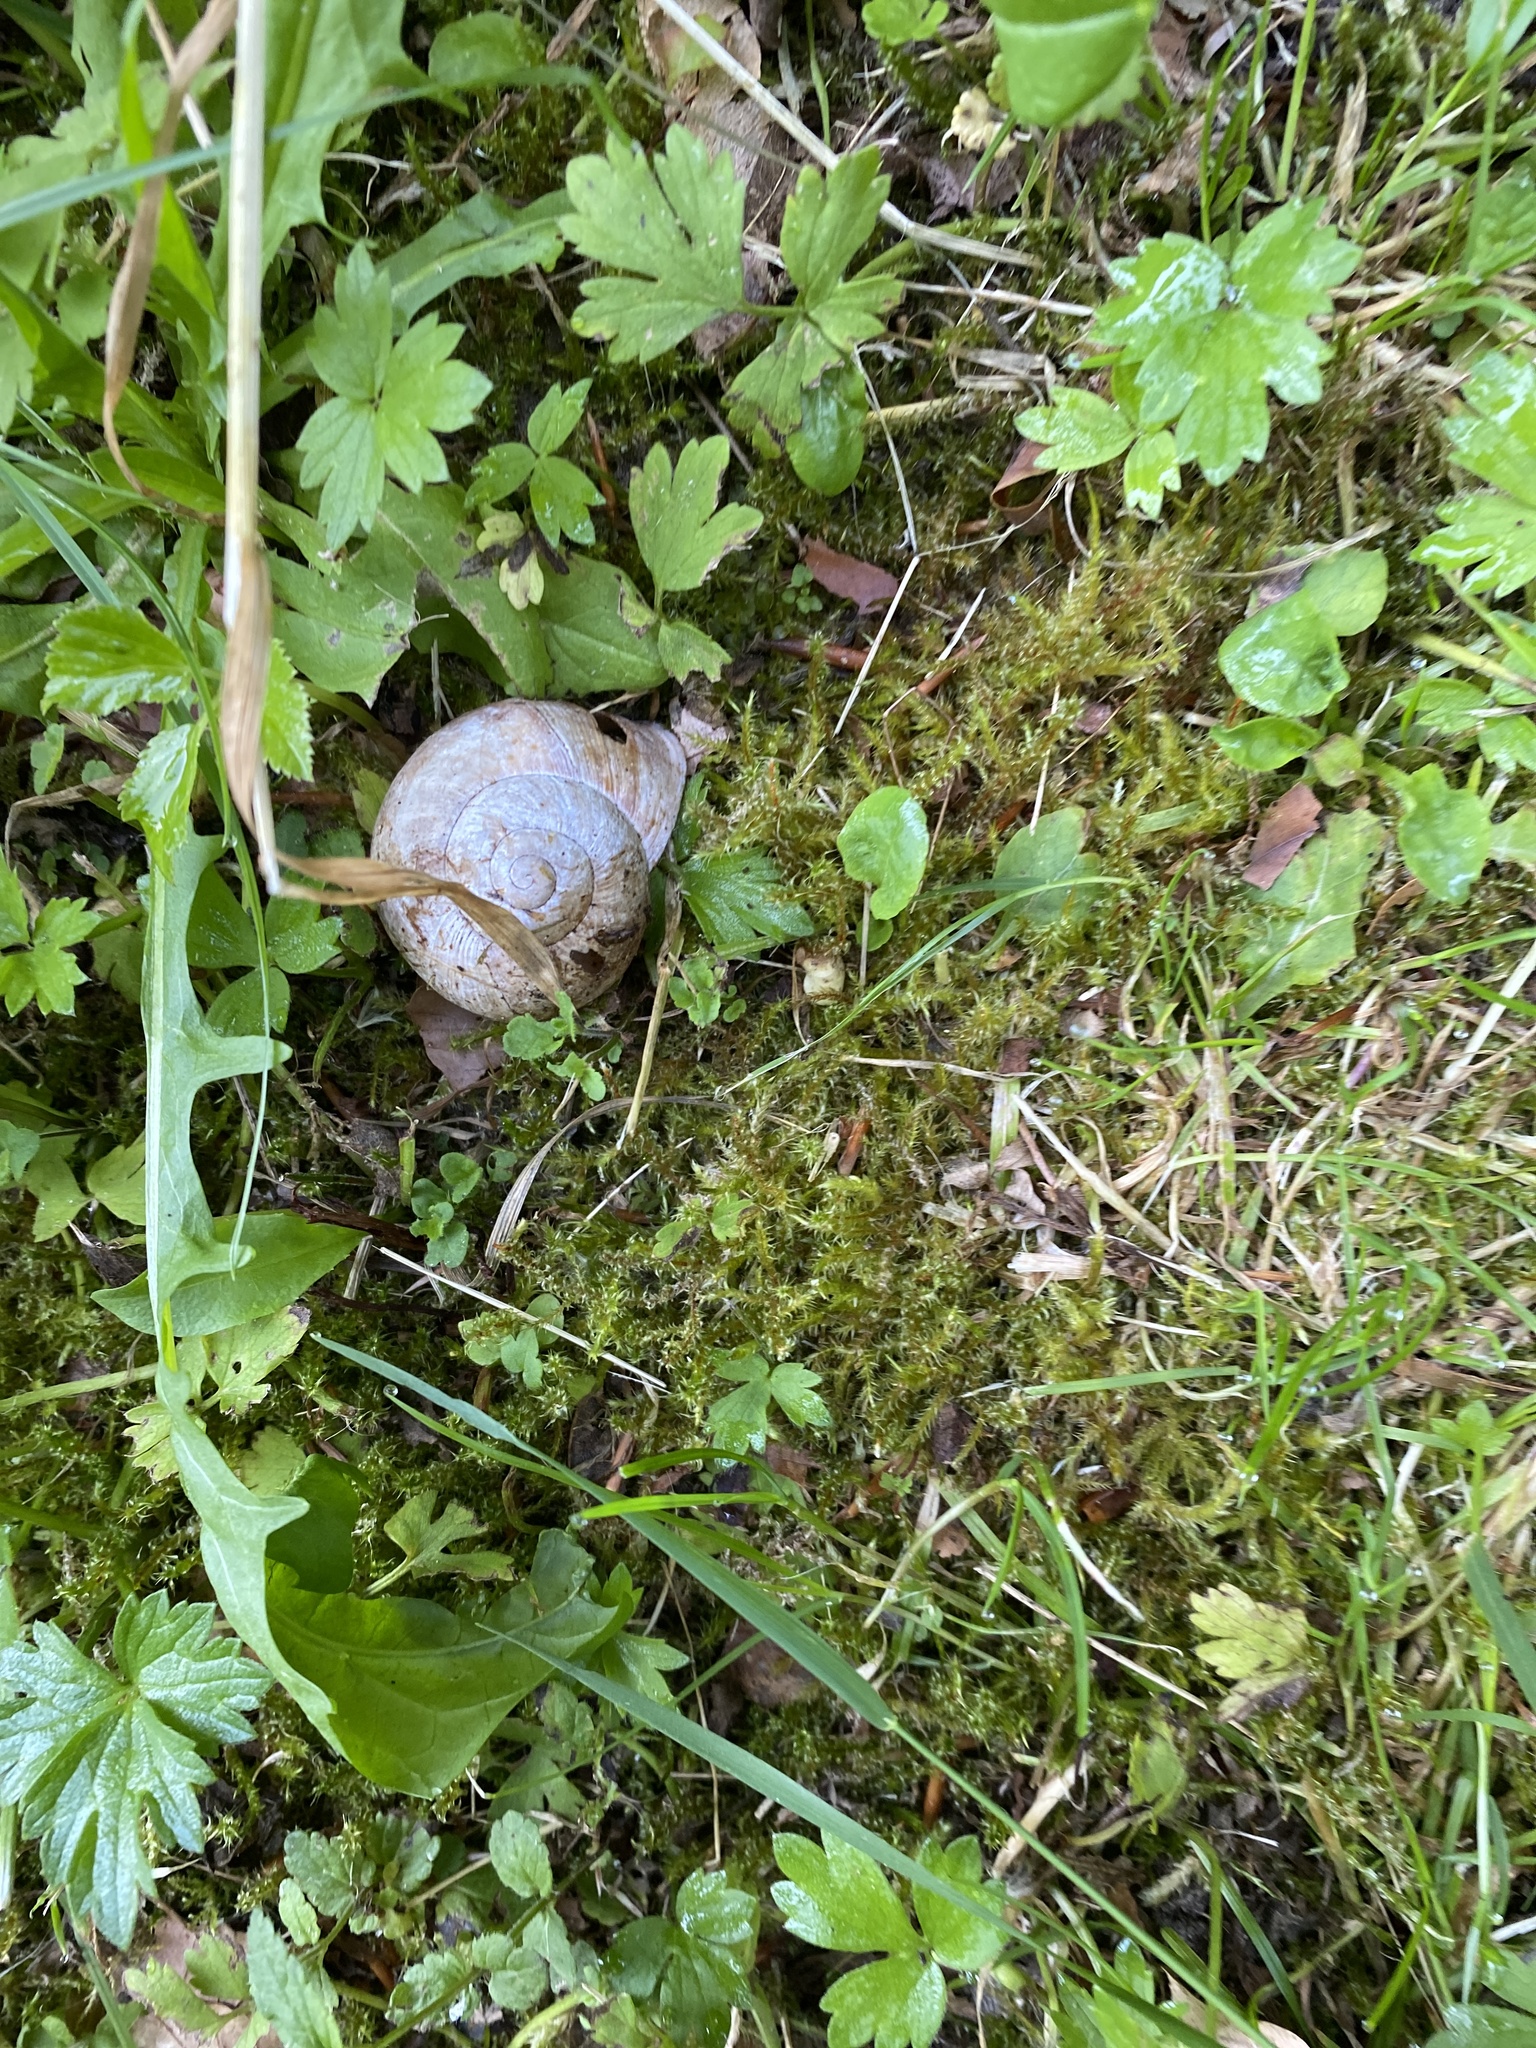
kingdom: Animalia
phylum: Mollusca
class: Gastropoda
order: Stylommatophora
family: Helicidae
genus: Helix
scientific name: Helix pomatia
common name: Roman snail
